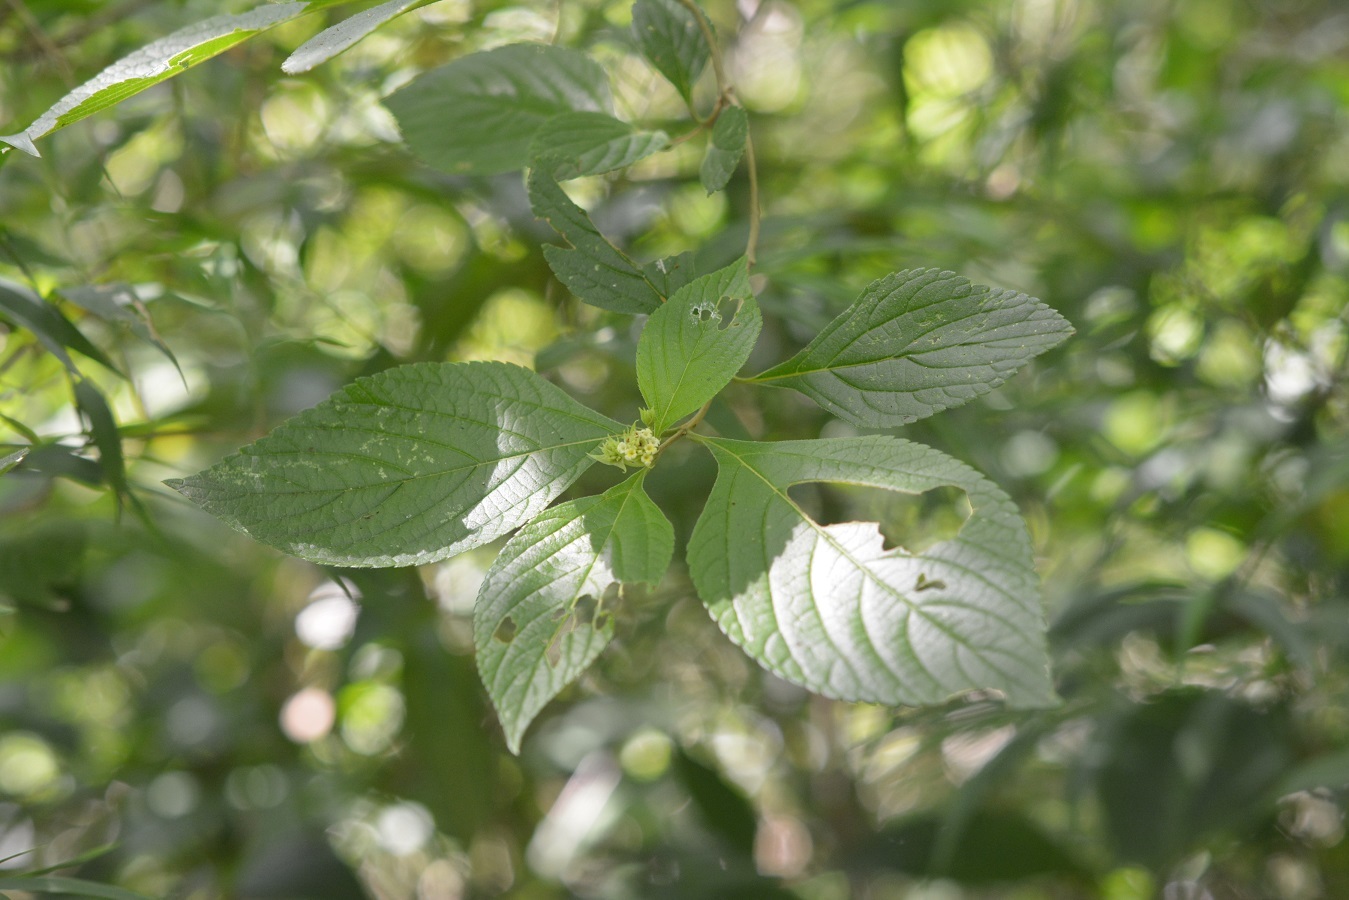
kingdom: Plantae
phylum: Tracheophyta
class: Magnoliopsida
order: Lamiales
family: Verbenaceae
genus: Lippia
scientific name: Lippia cardiostegia
